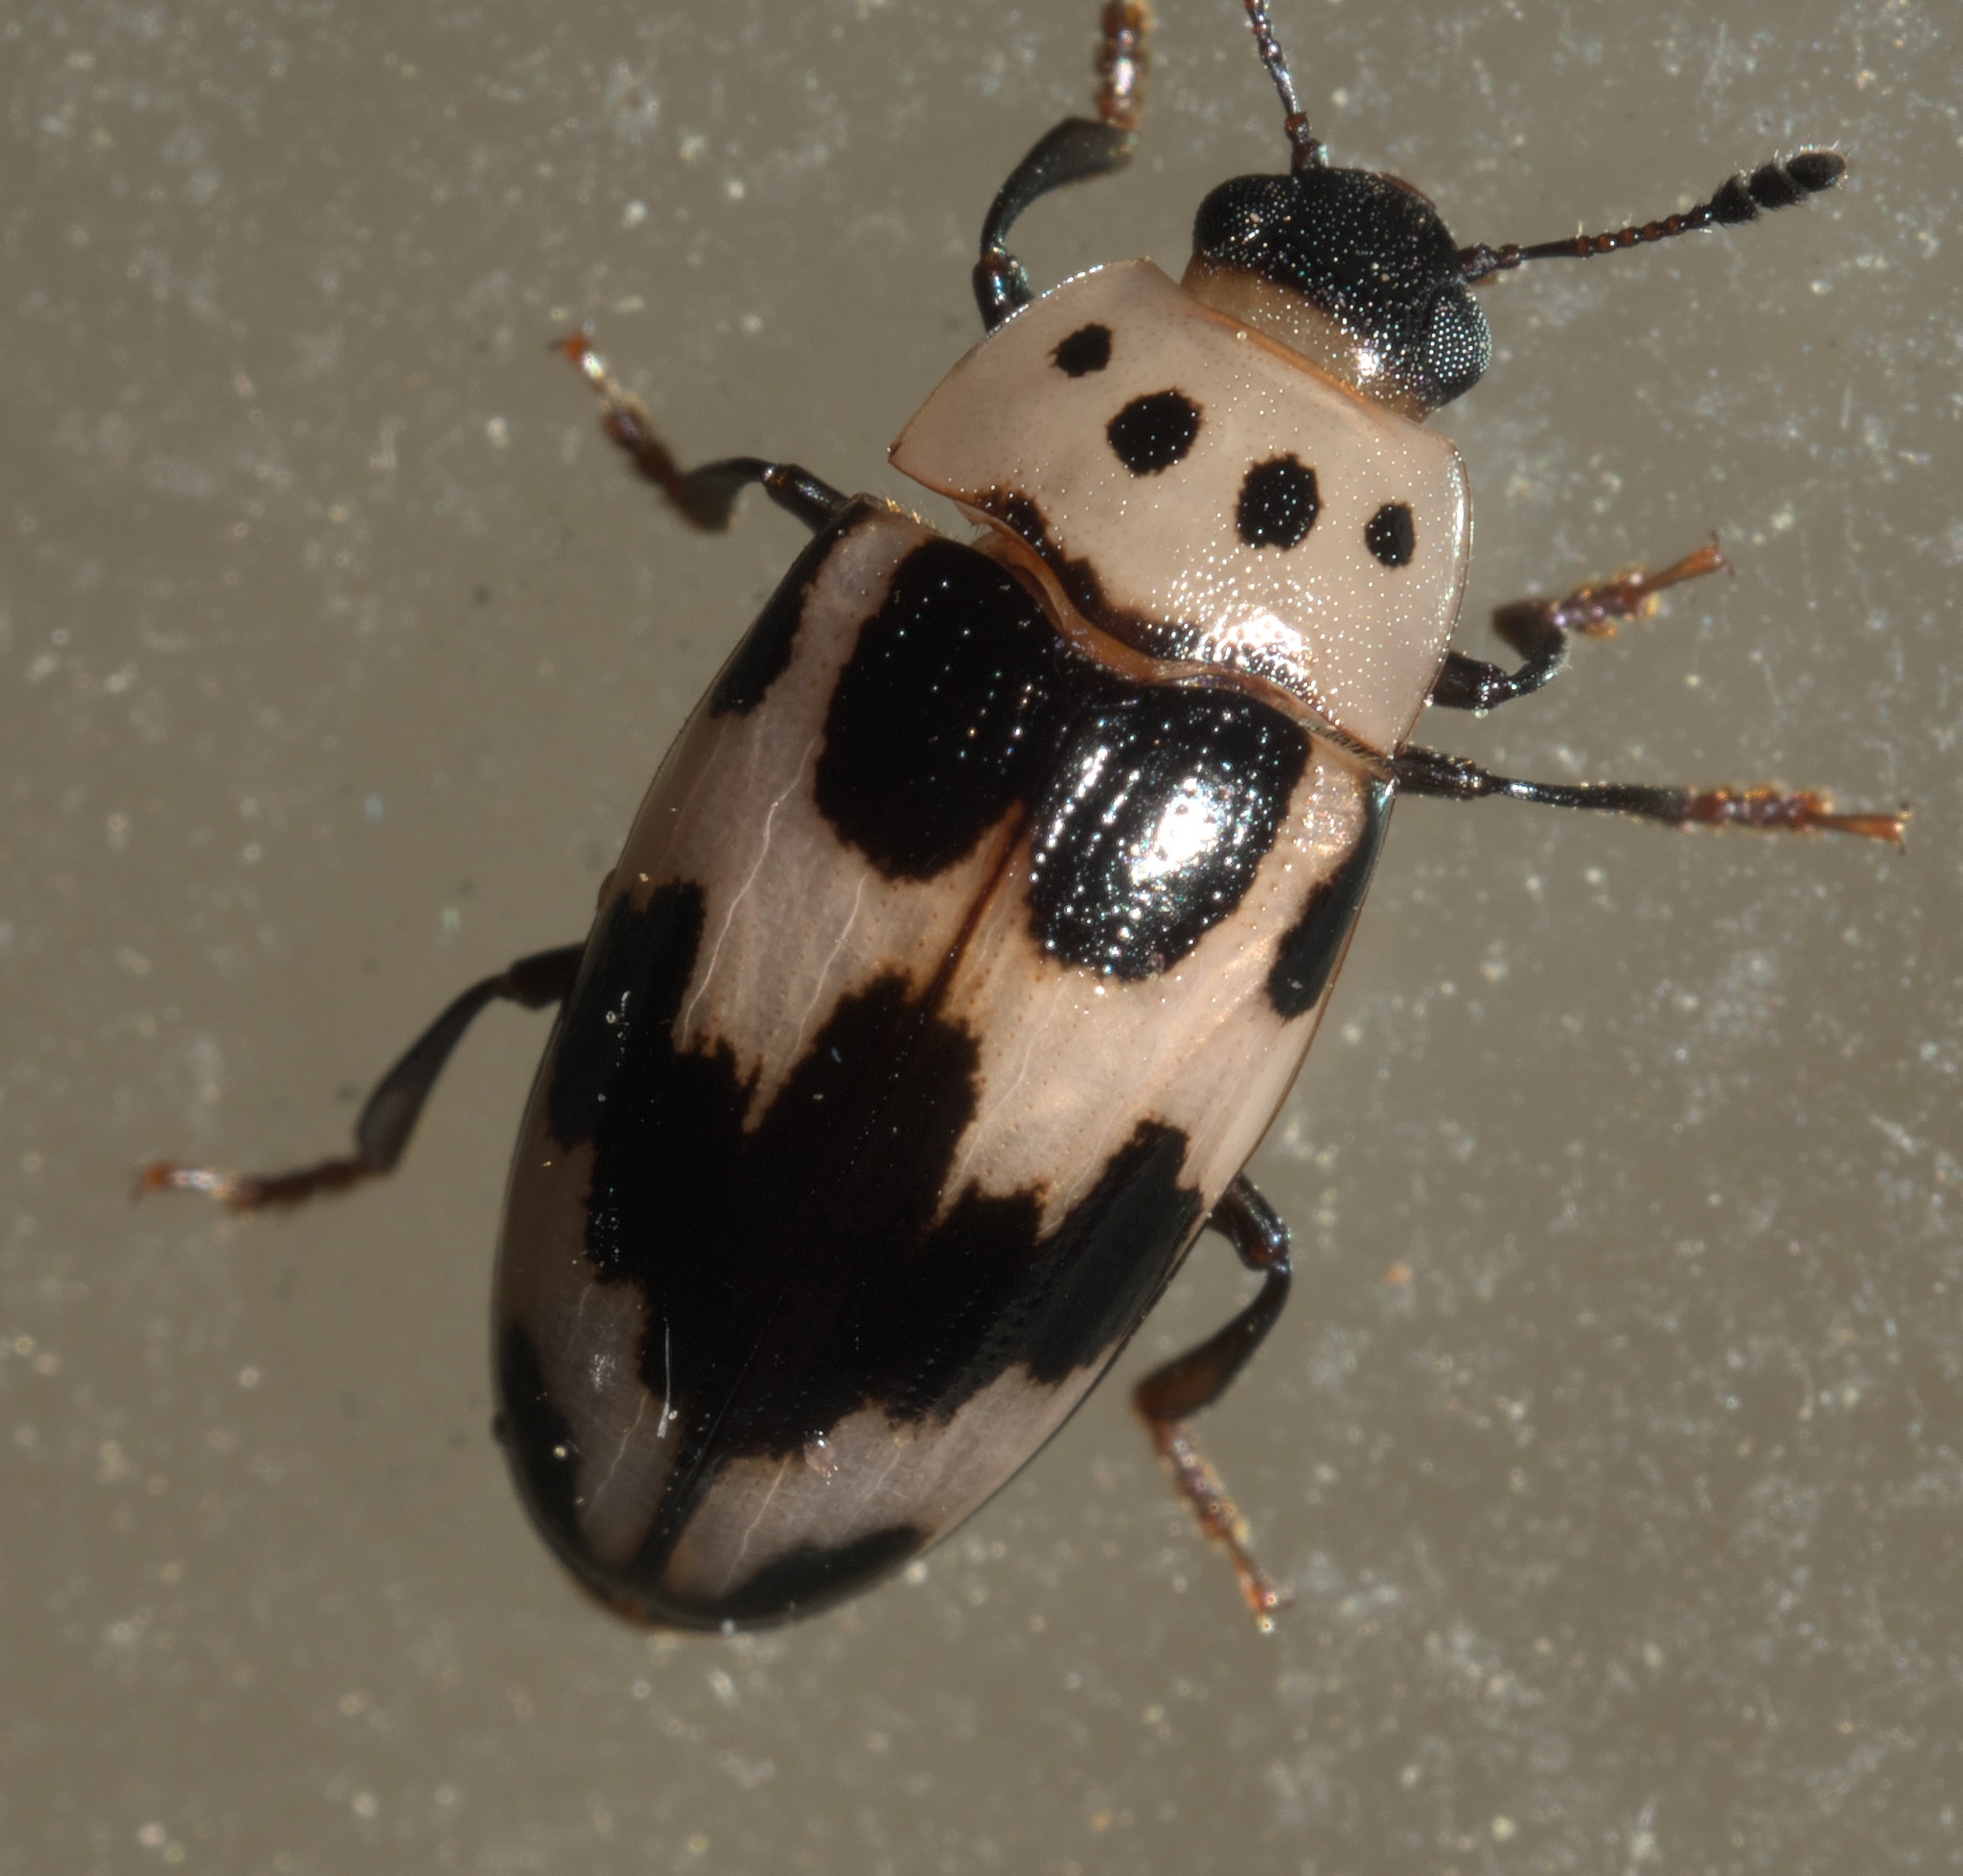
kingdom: Animalia
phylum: Arthropoda
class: Insecta
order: Coleoptera
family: Erotylidae
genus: Ischyrus
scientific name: Ischyrus quadripunctatus
